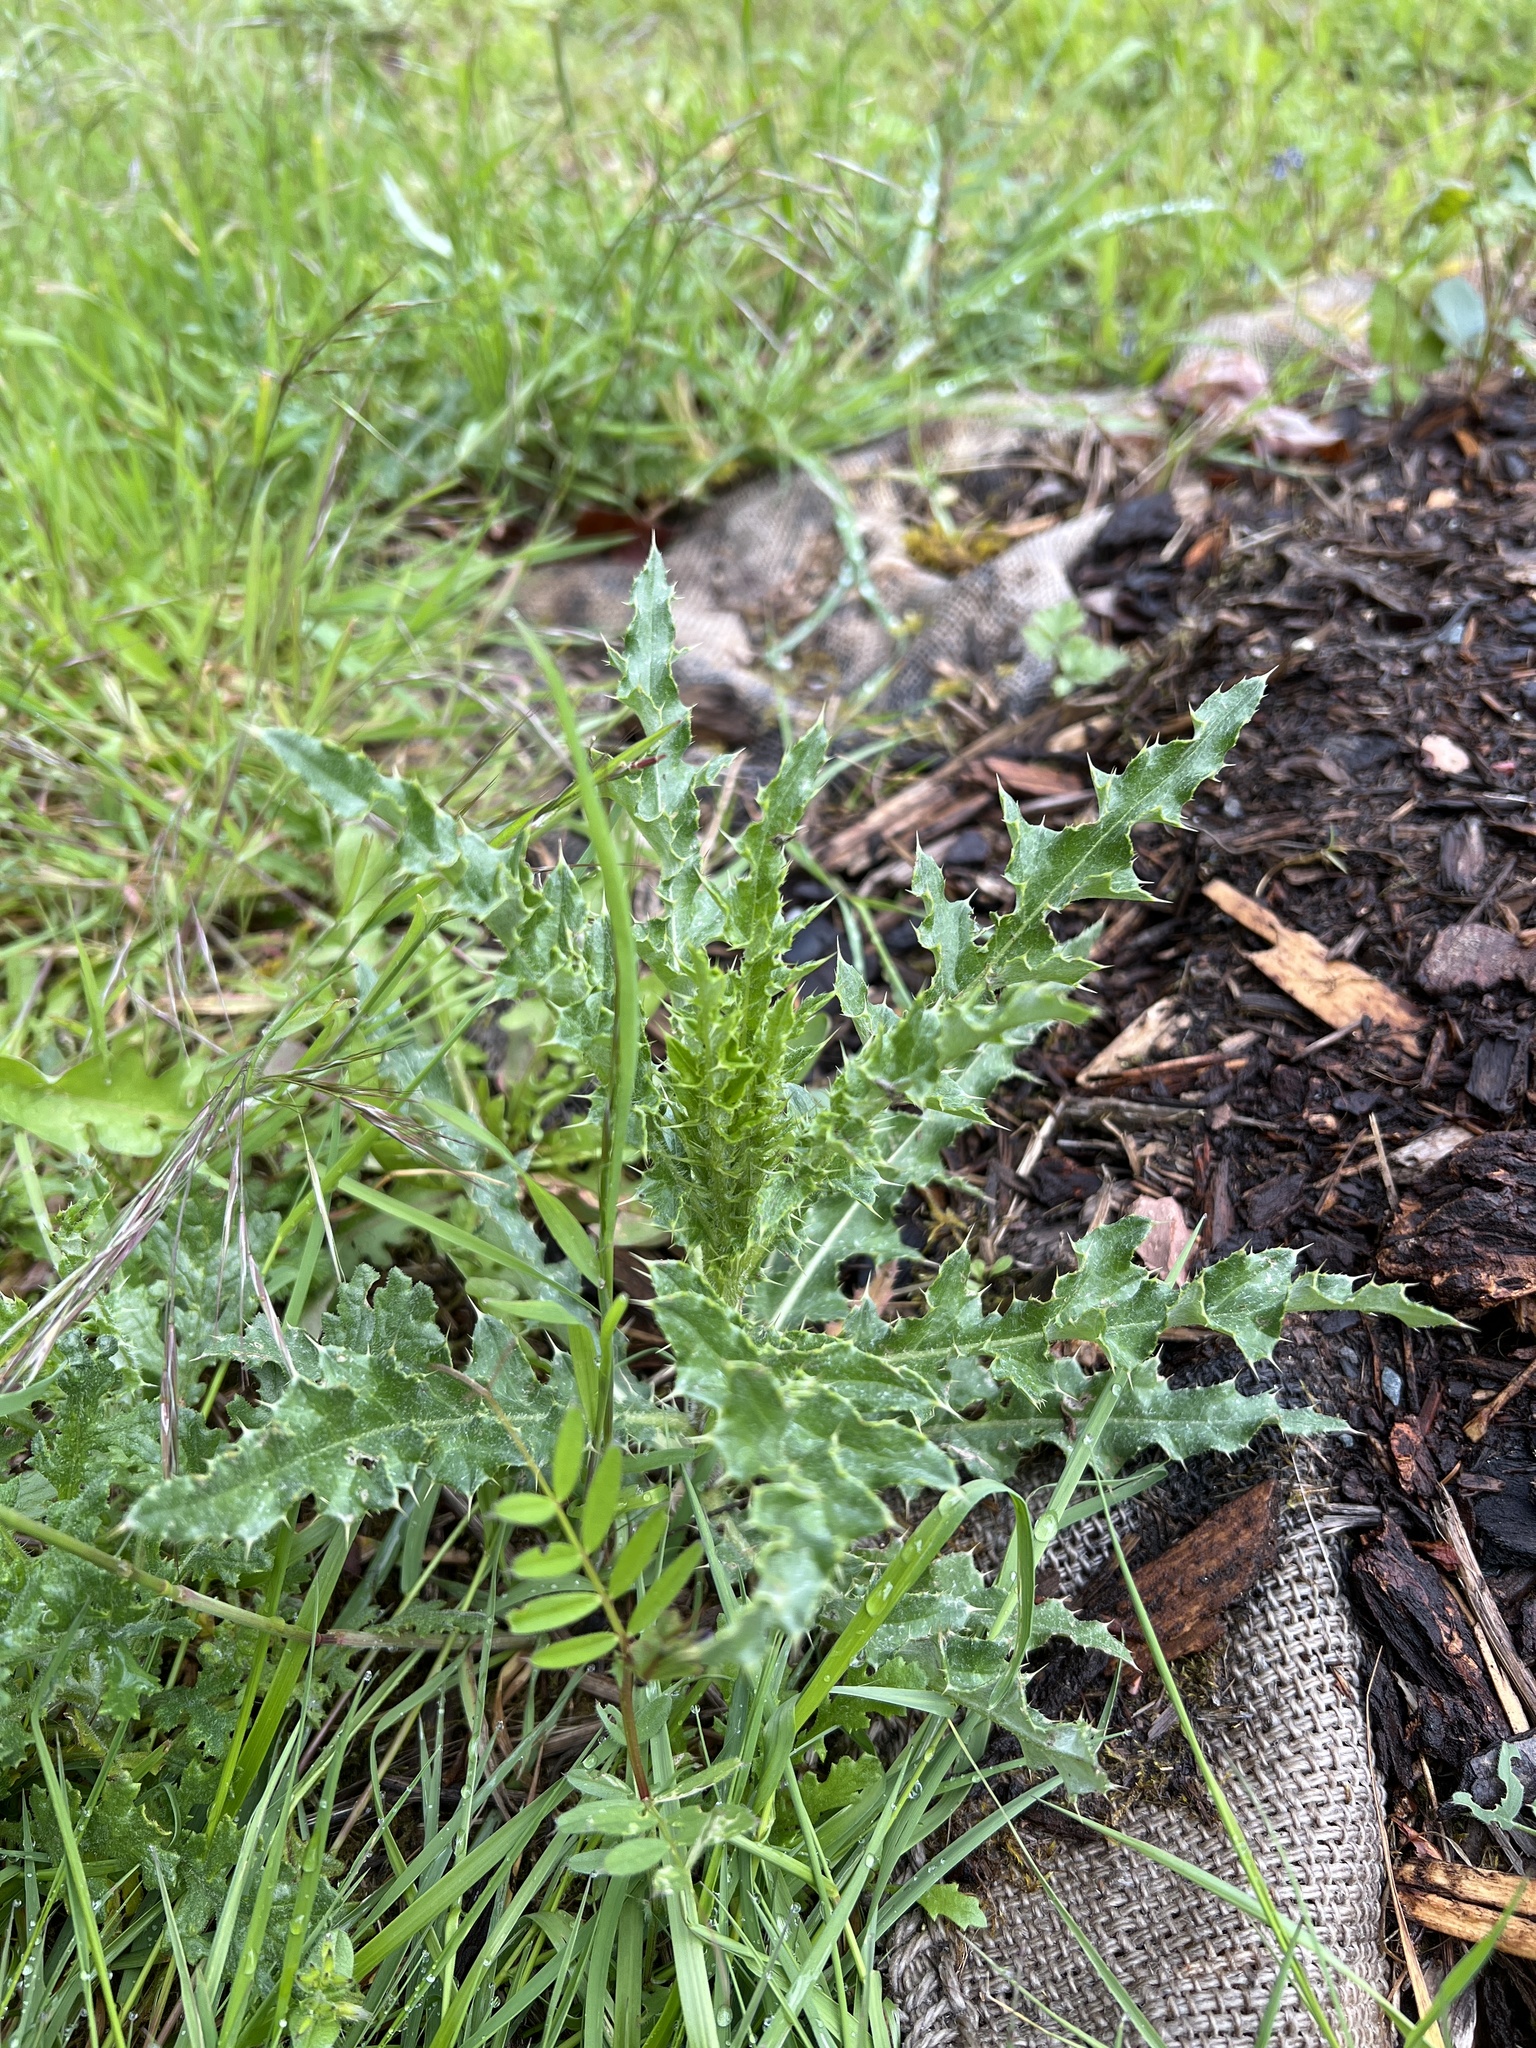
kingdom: Plantae
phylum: Tracheophyta
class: Magnoliopsida
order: Asterales
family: Asteraceae
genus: Cirsium
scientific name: Cirsium arvense
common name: Creeping thistle
